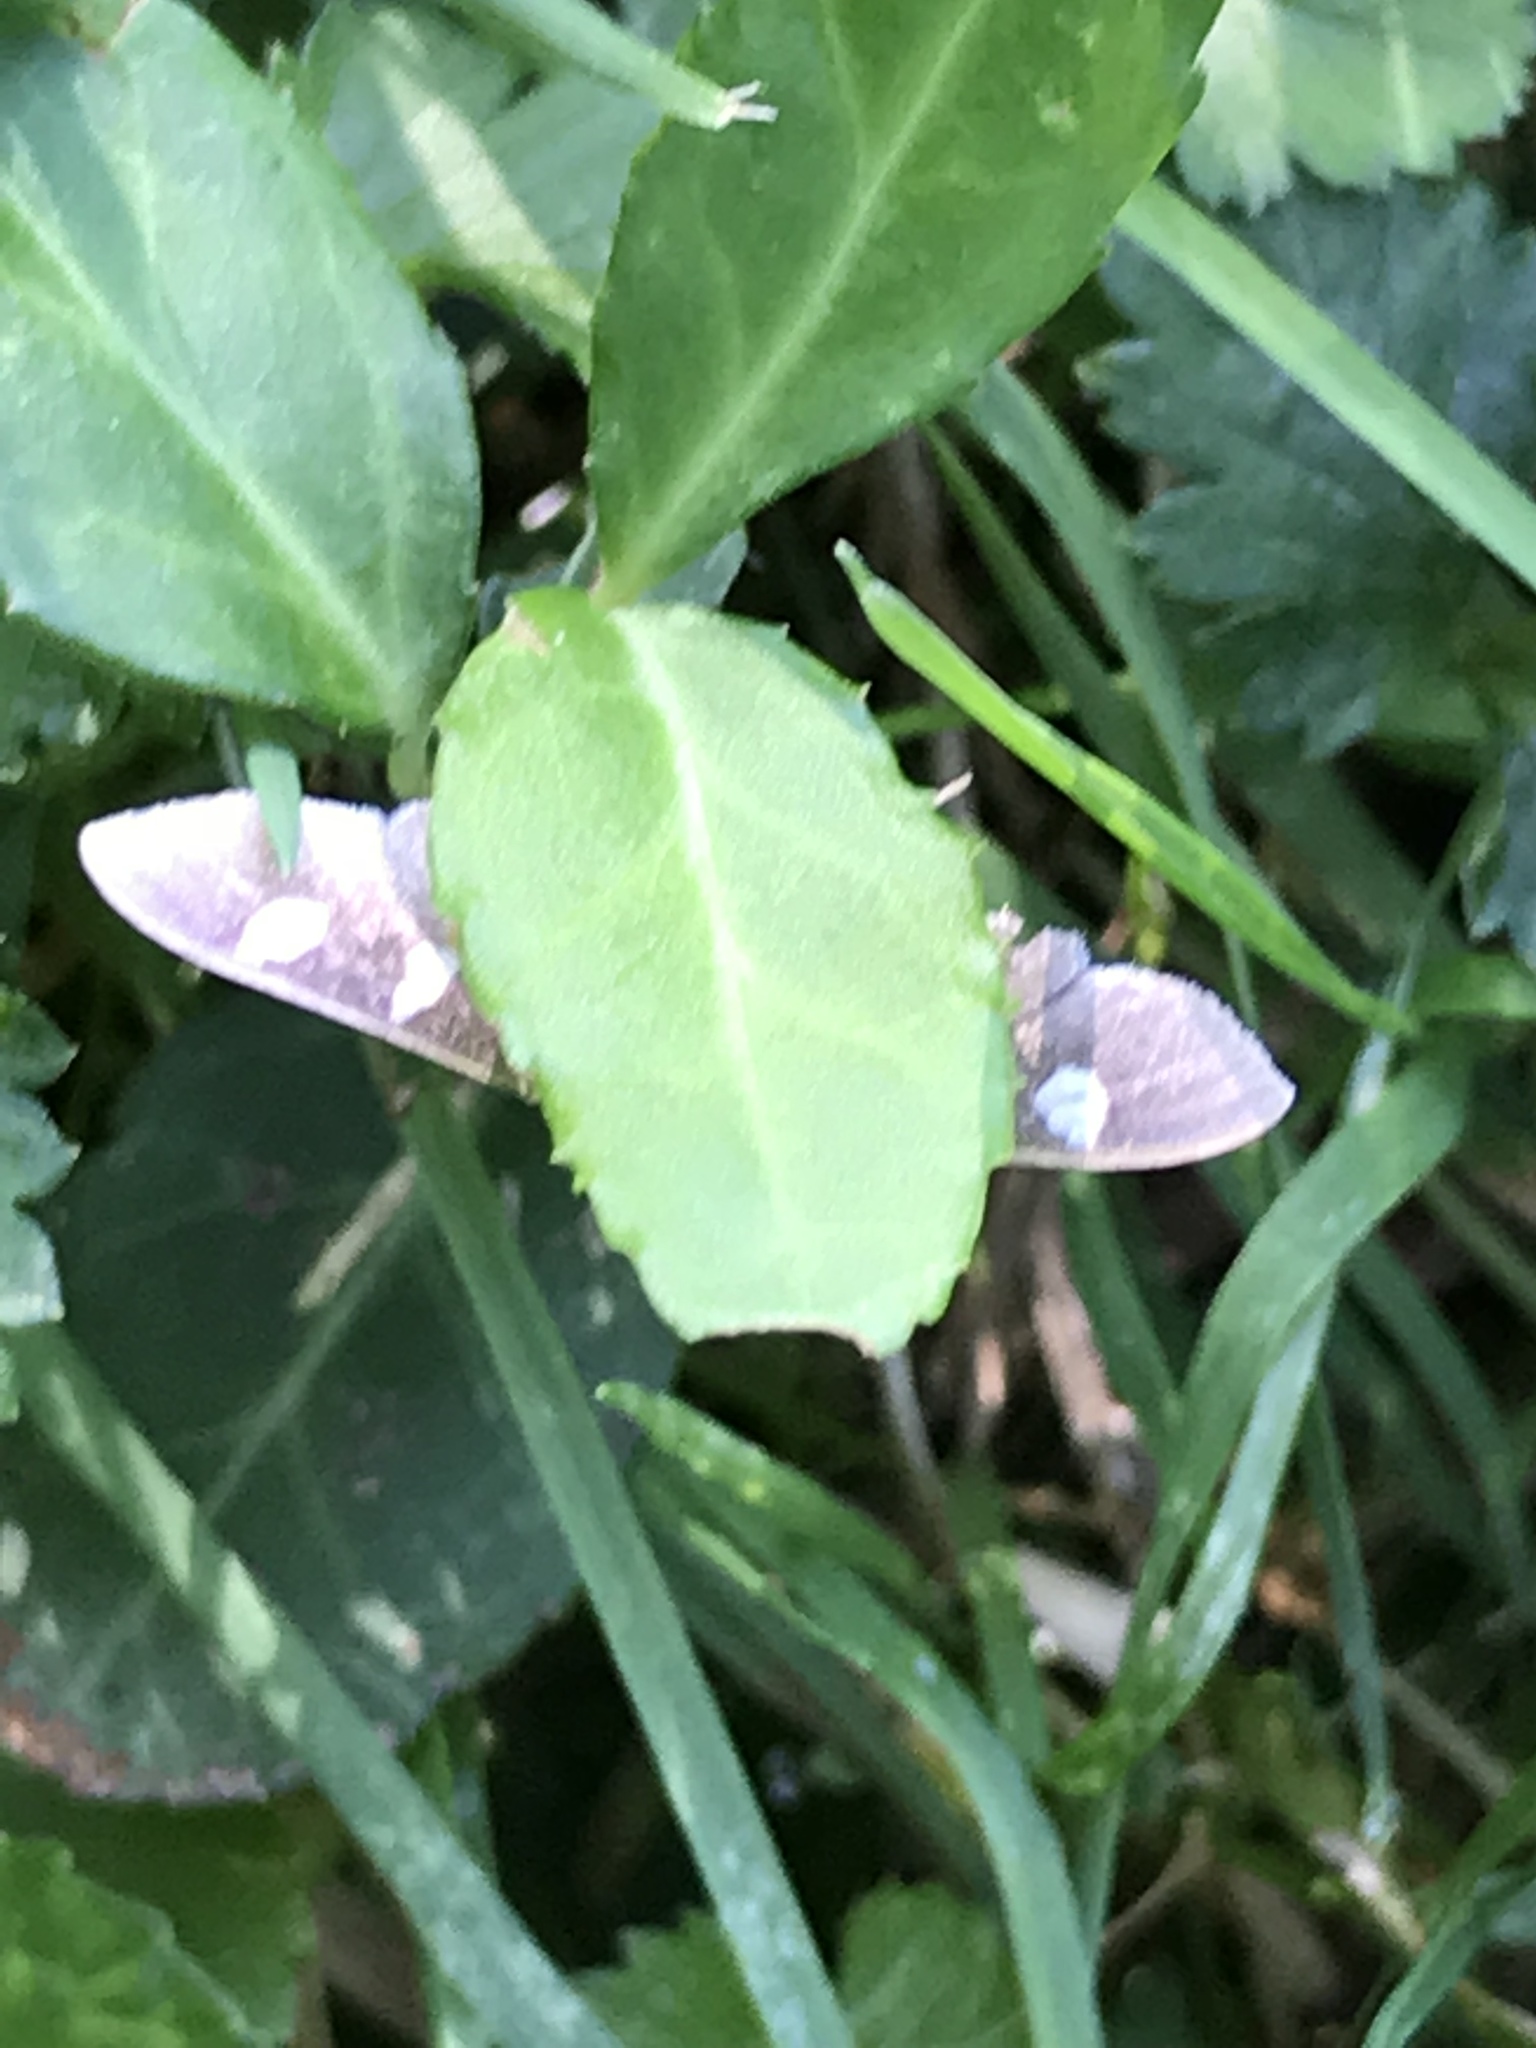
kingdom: Animalia
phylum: Arthropoda
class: Insecta
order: Lepidoptera
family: Crambidae
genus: Desmia
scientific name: Desmia
